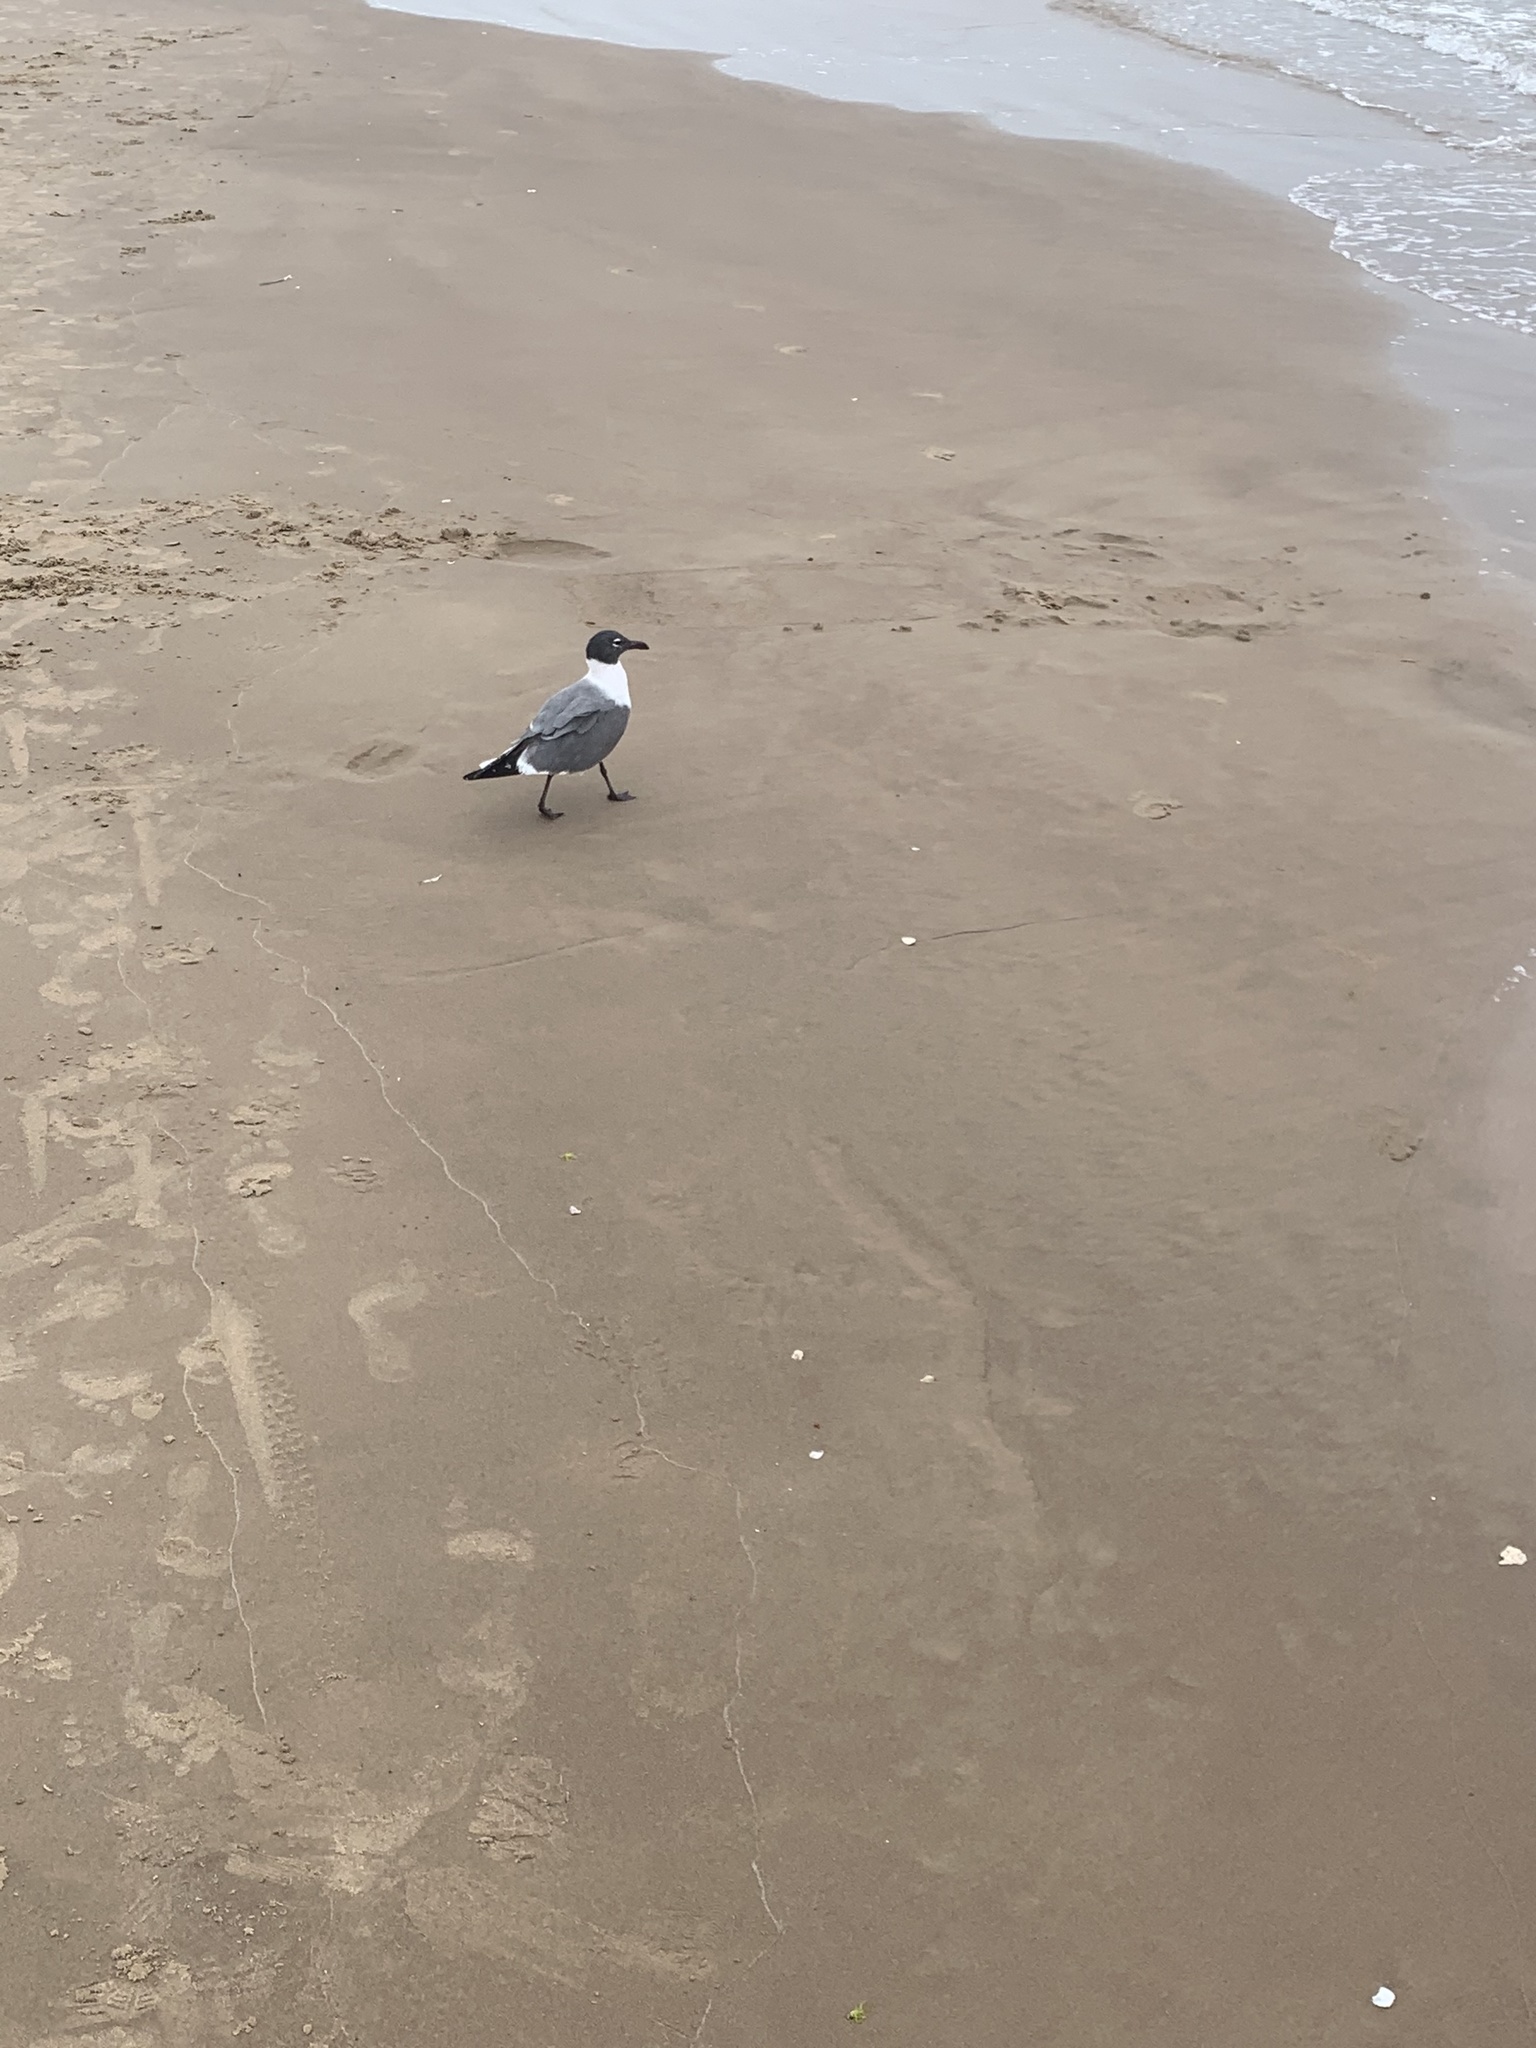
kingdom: Animalia
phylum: Chordata
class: Aves
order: Charadriiformes
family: Laridae
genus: Leucophaeus
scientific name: Leucophaeus atricilla
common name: Laughing gull
